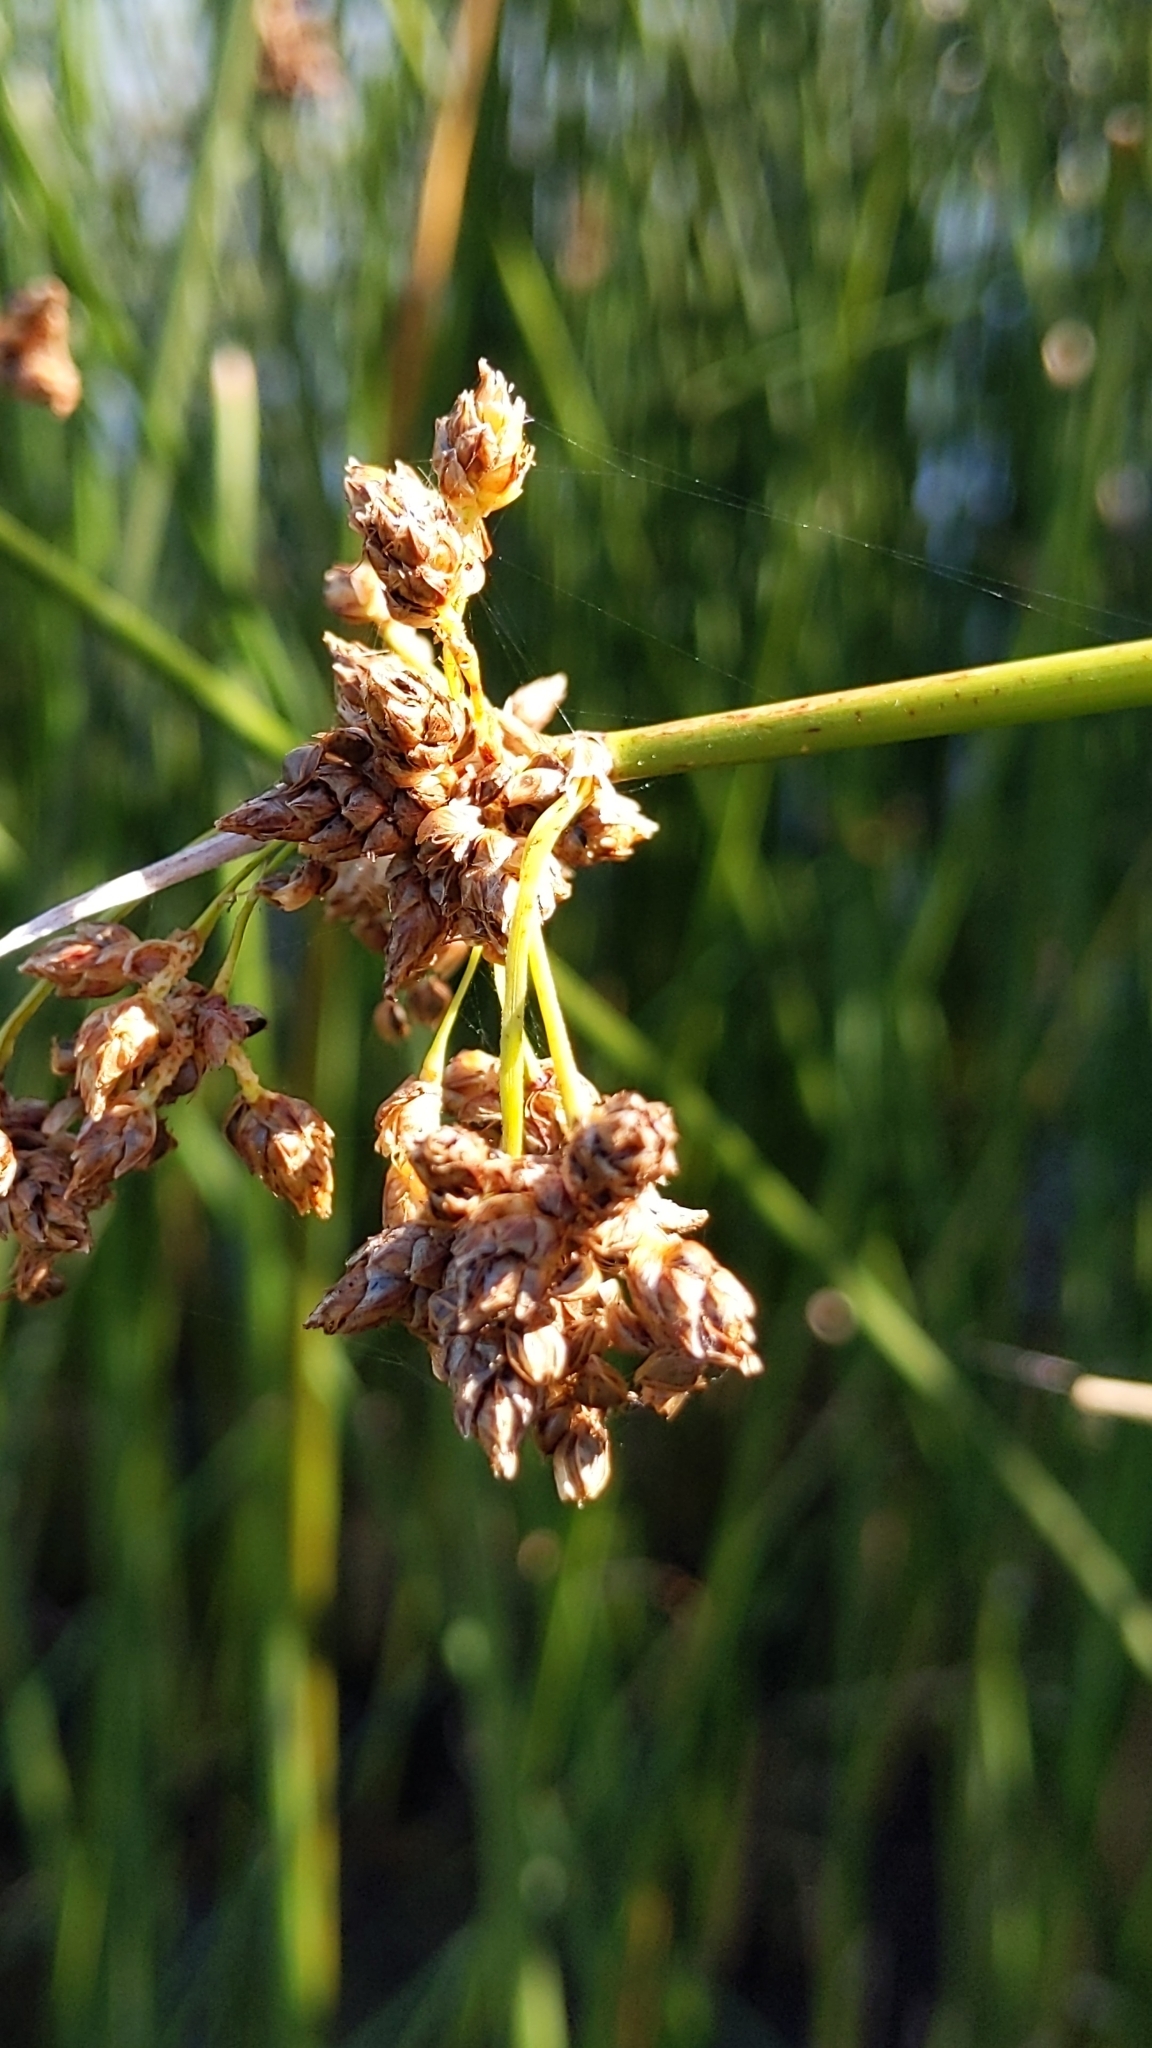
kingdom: Plantae
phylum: Tracheophyta
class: Liliopsida
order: Poales
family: Cyperaceae
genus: Schoenoplectus
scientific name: Schoenoplectus lacustris
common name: Common club-rush
